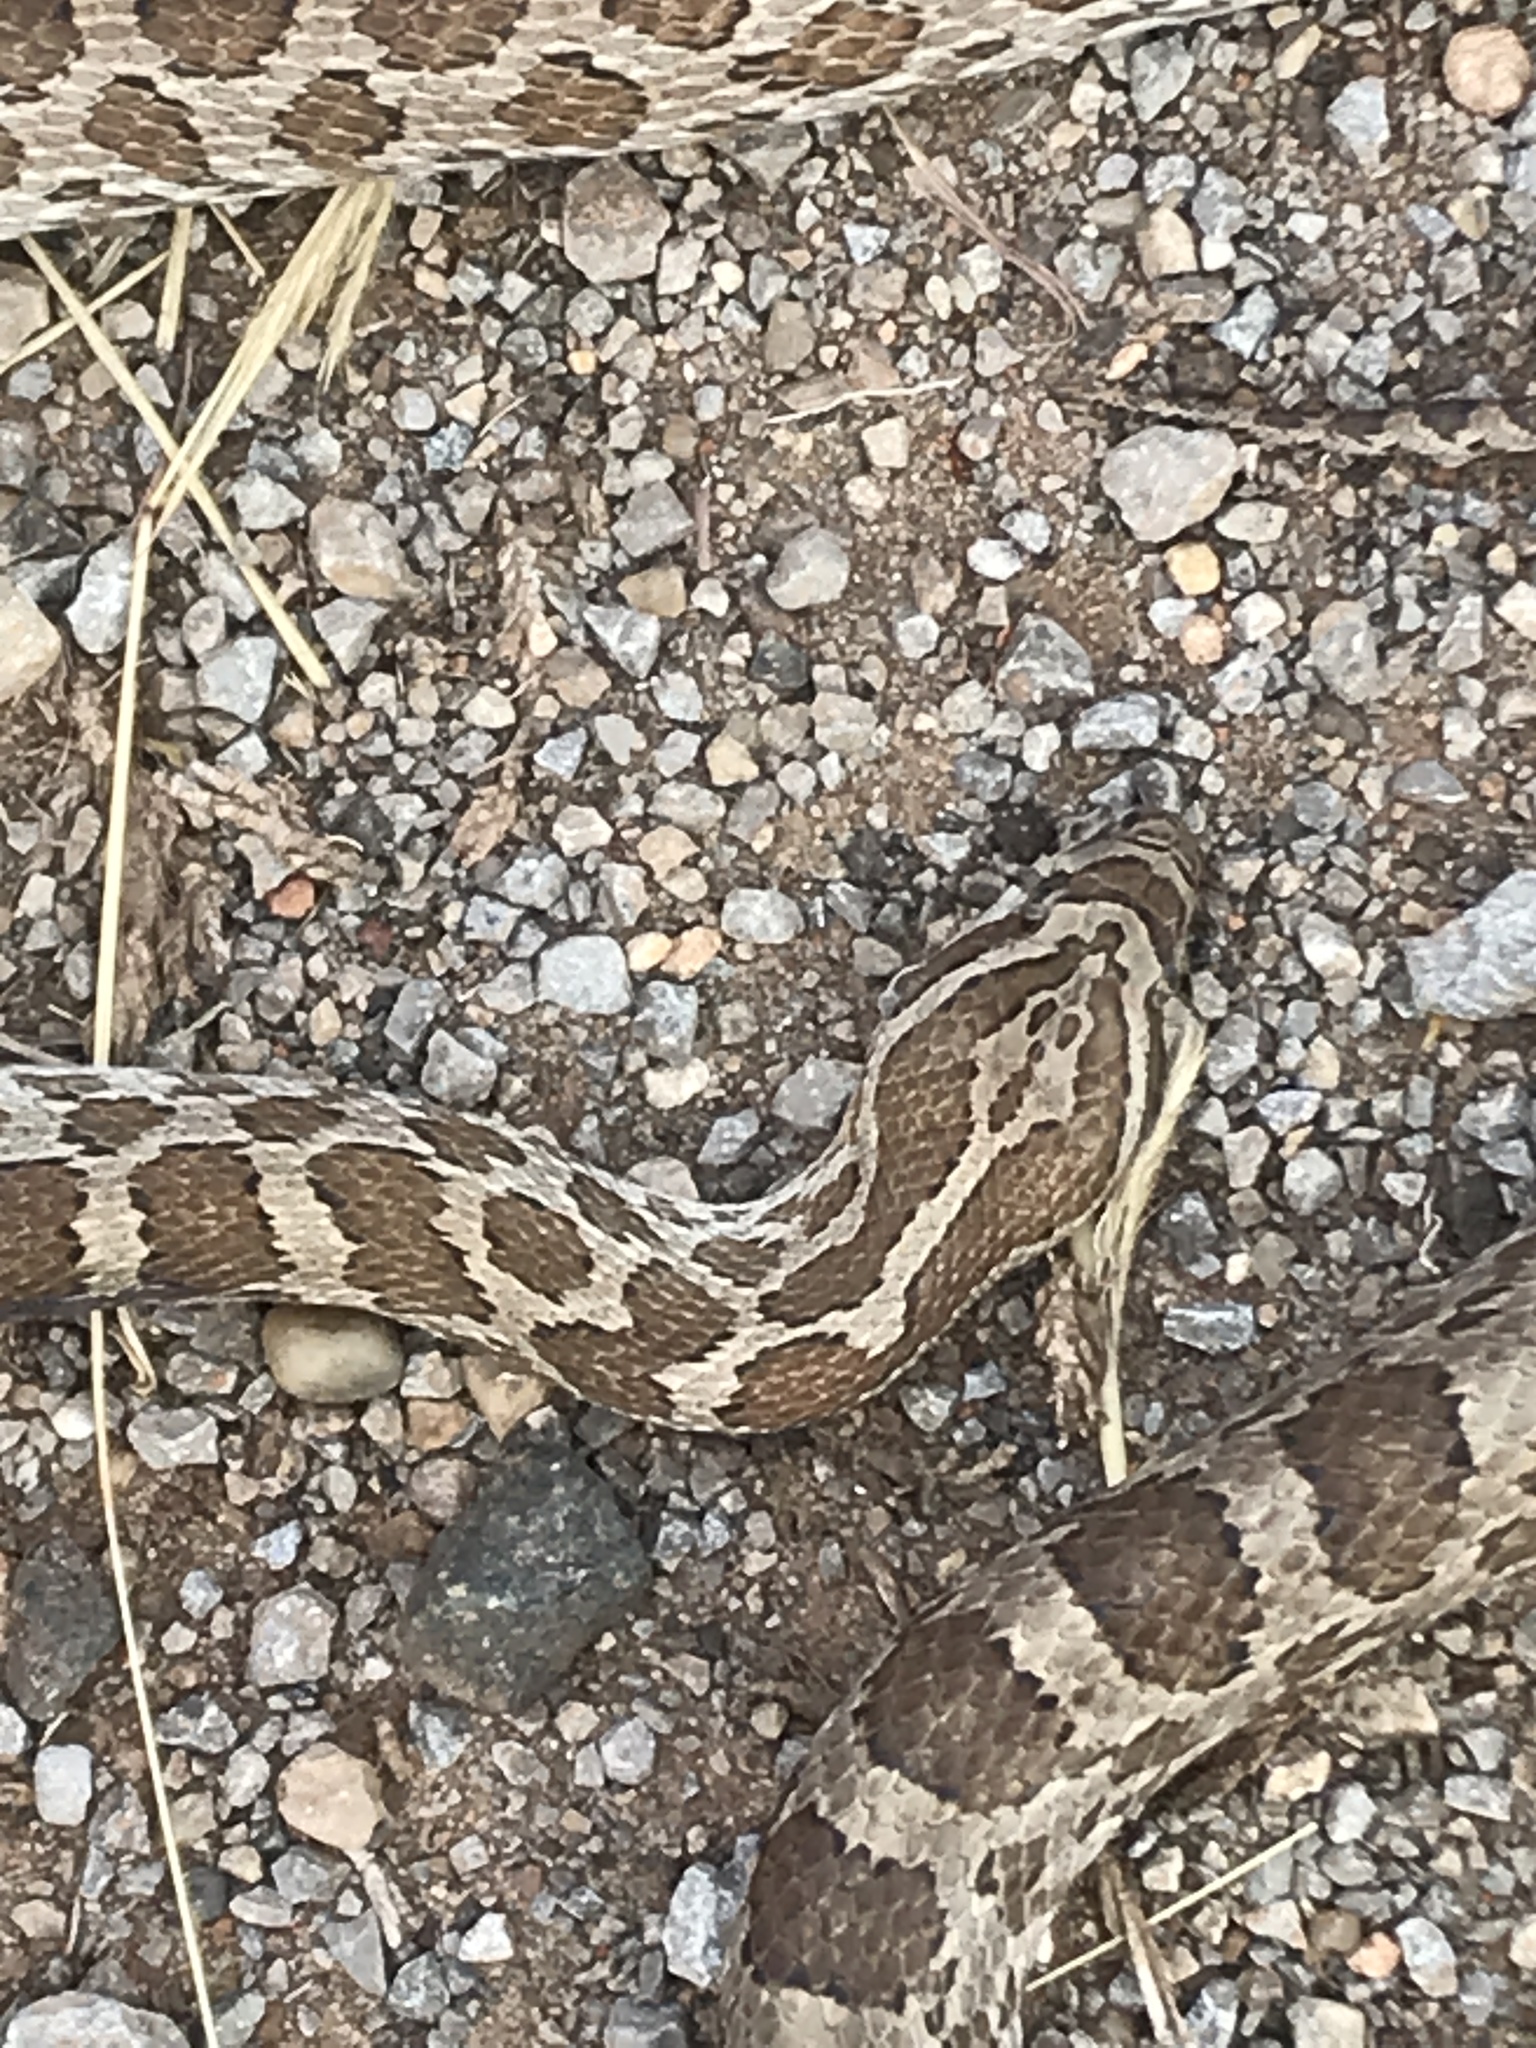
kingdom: Animalia
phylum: Chordata
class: Squamata
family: Colubridae
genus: Pantherophis
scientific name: Pantherophis emoryi
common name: Great plains rat snake
